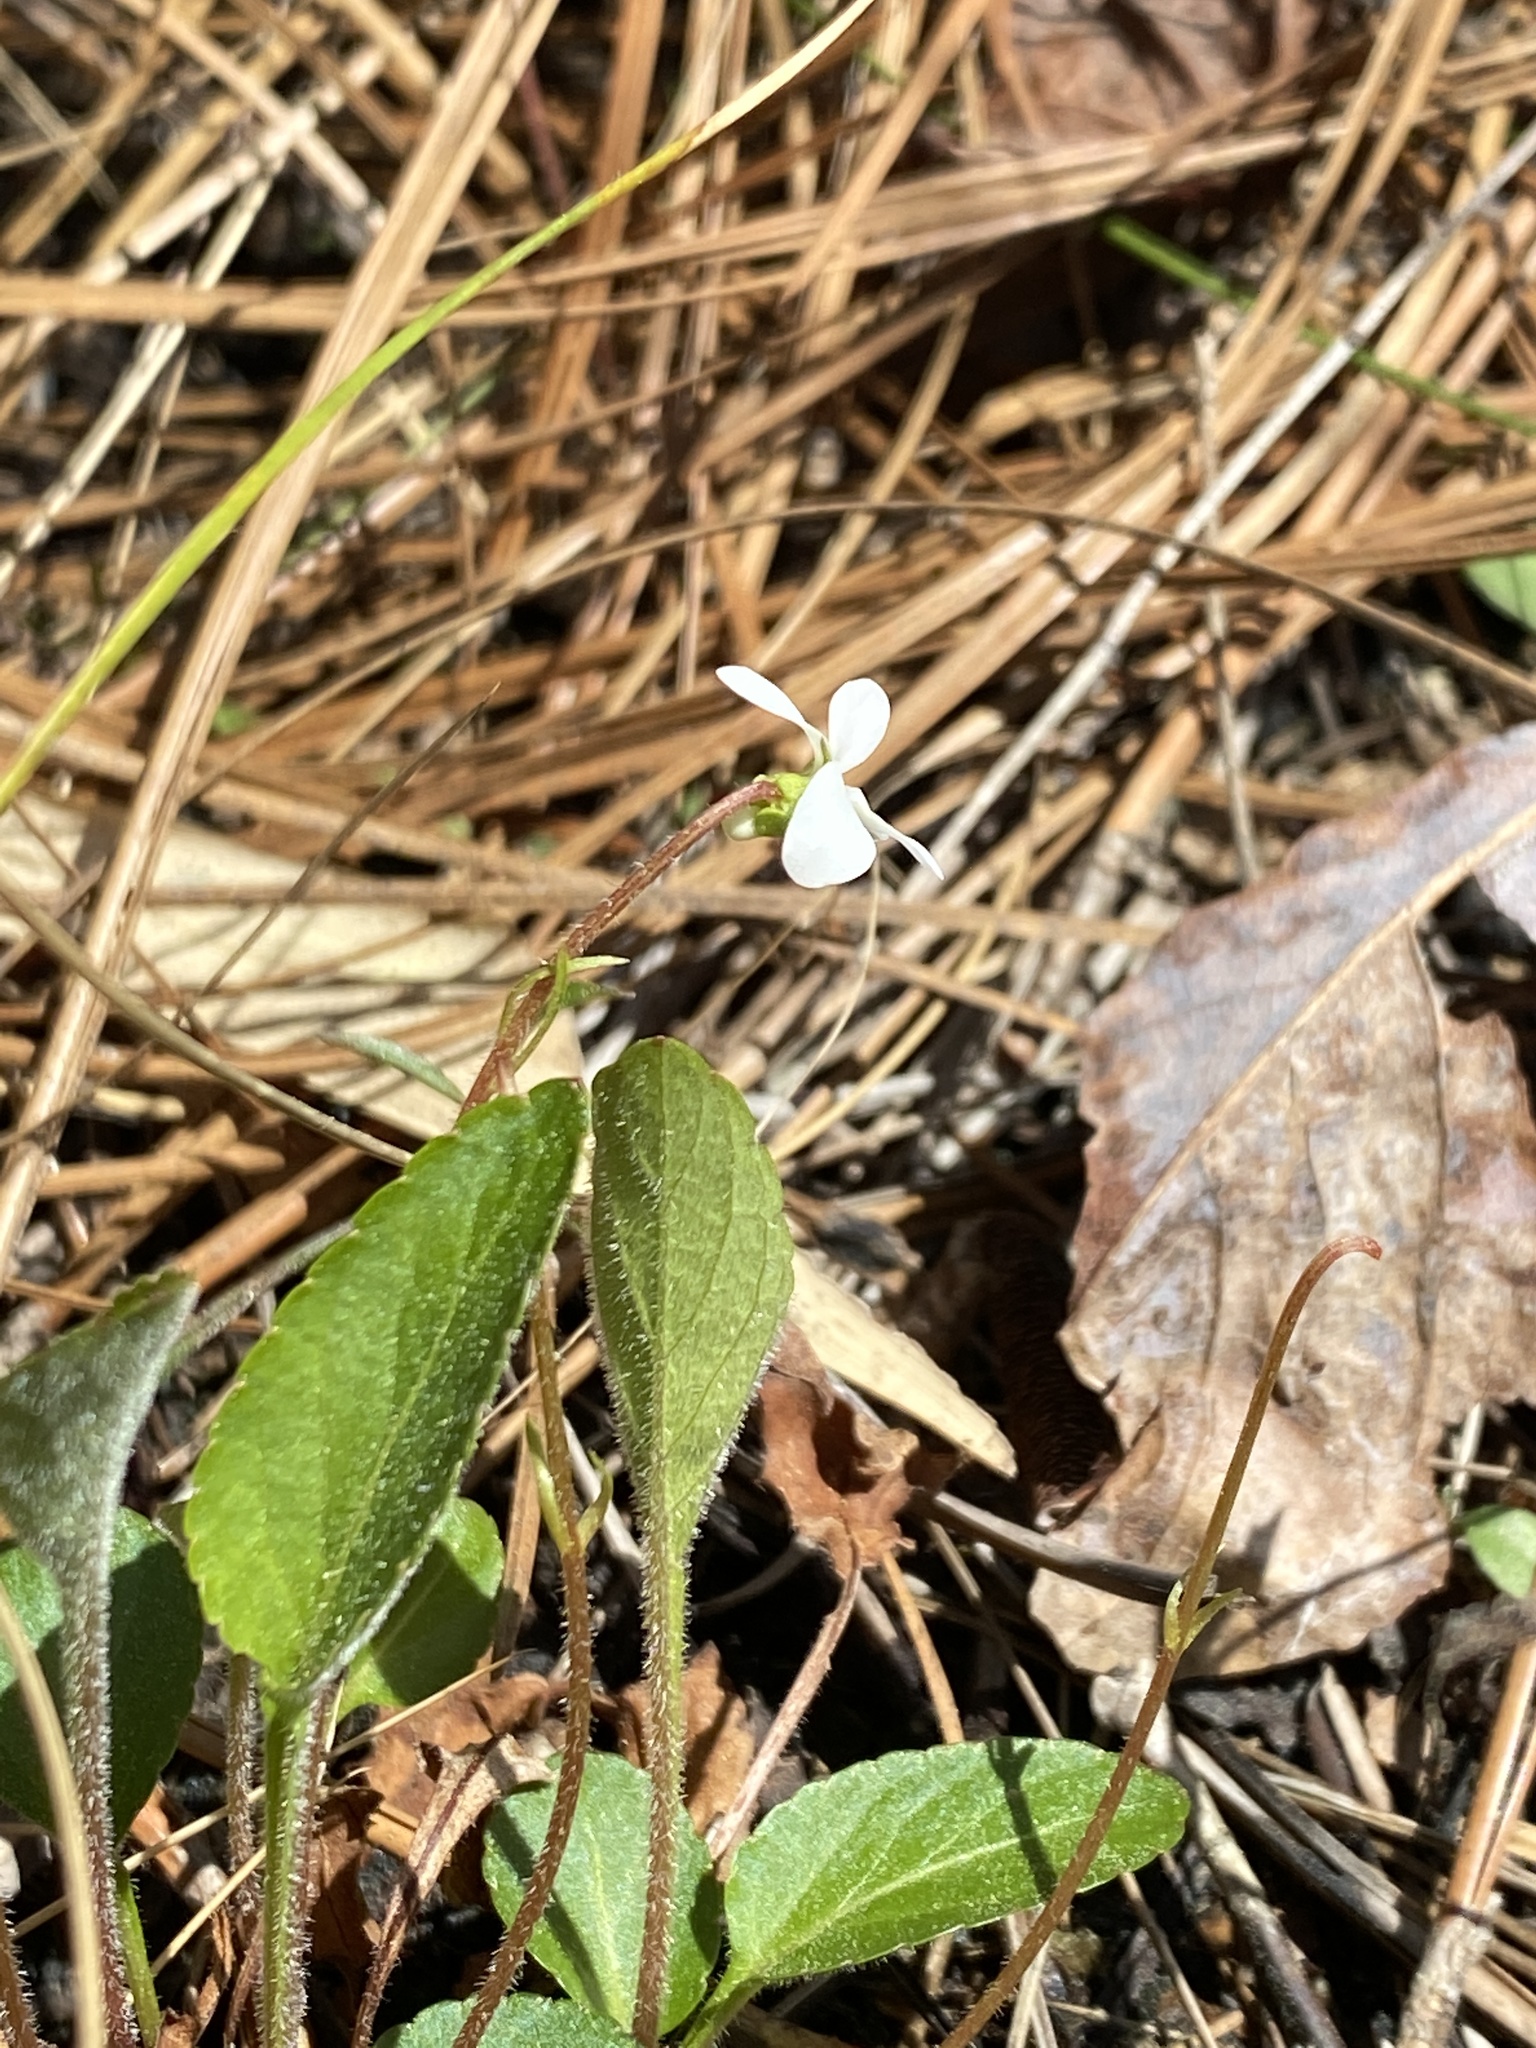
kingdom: Plantae
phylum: Tracheophyta
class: Magnoliopsida
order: Malpighiales
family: Violaceae
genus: Viola
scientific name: Viola primulifolia
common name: Primrose-leaf violet
